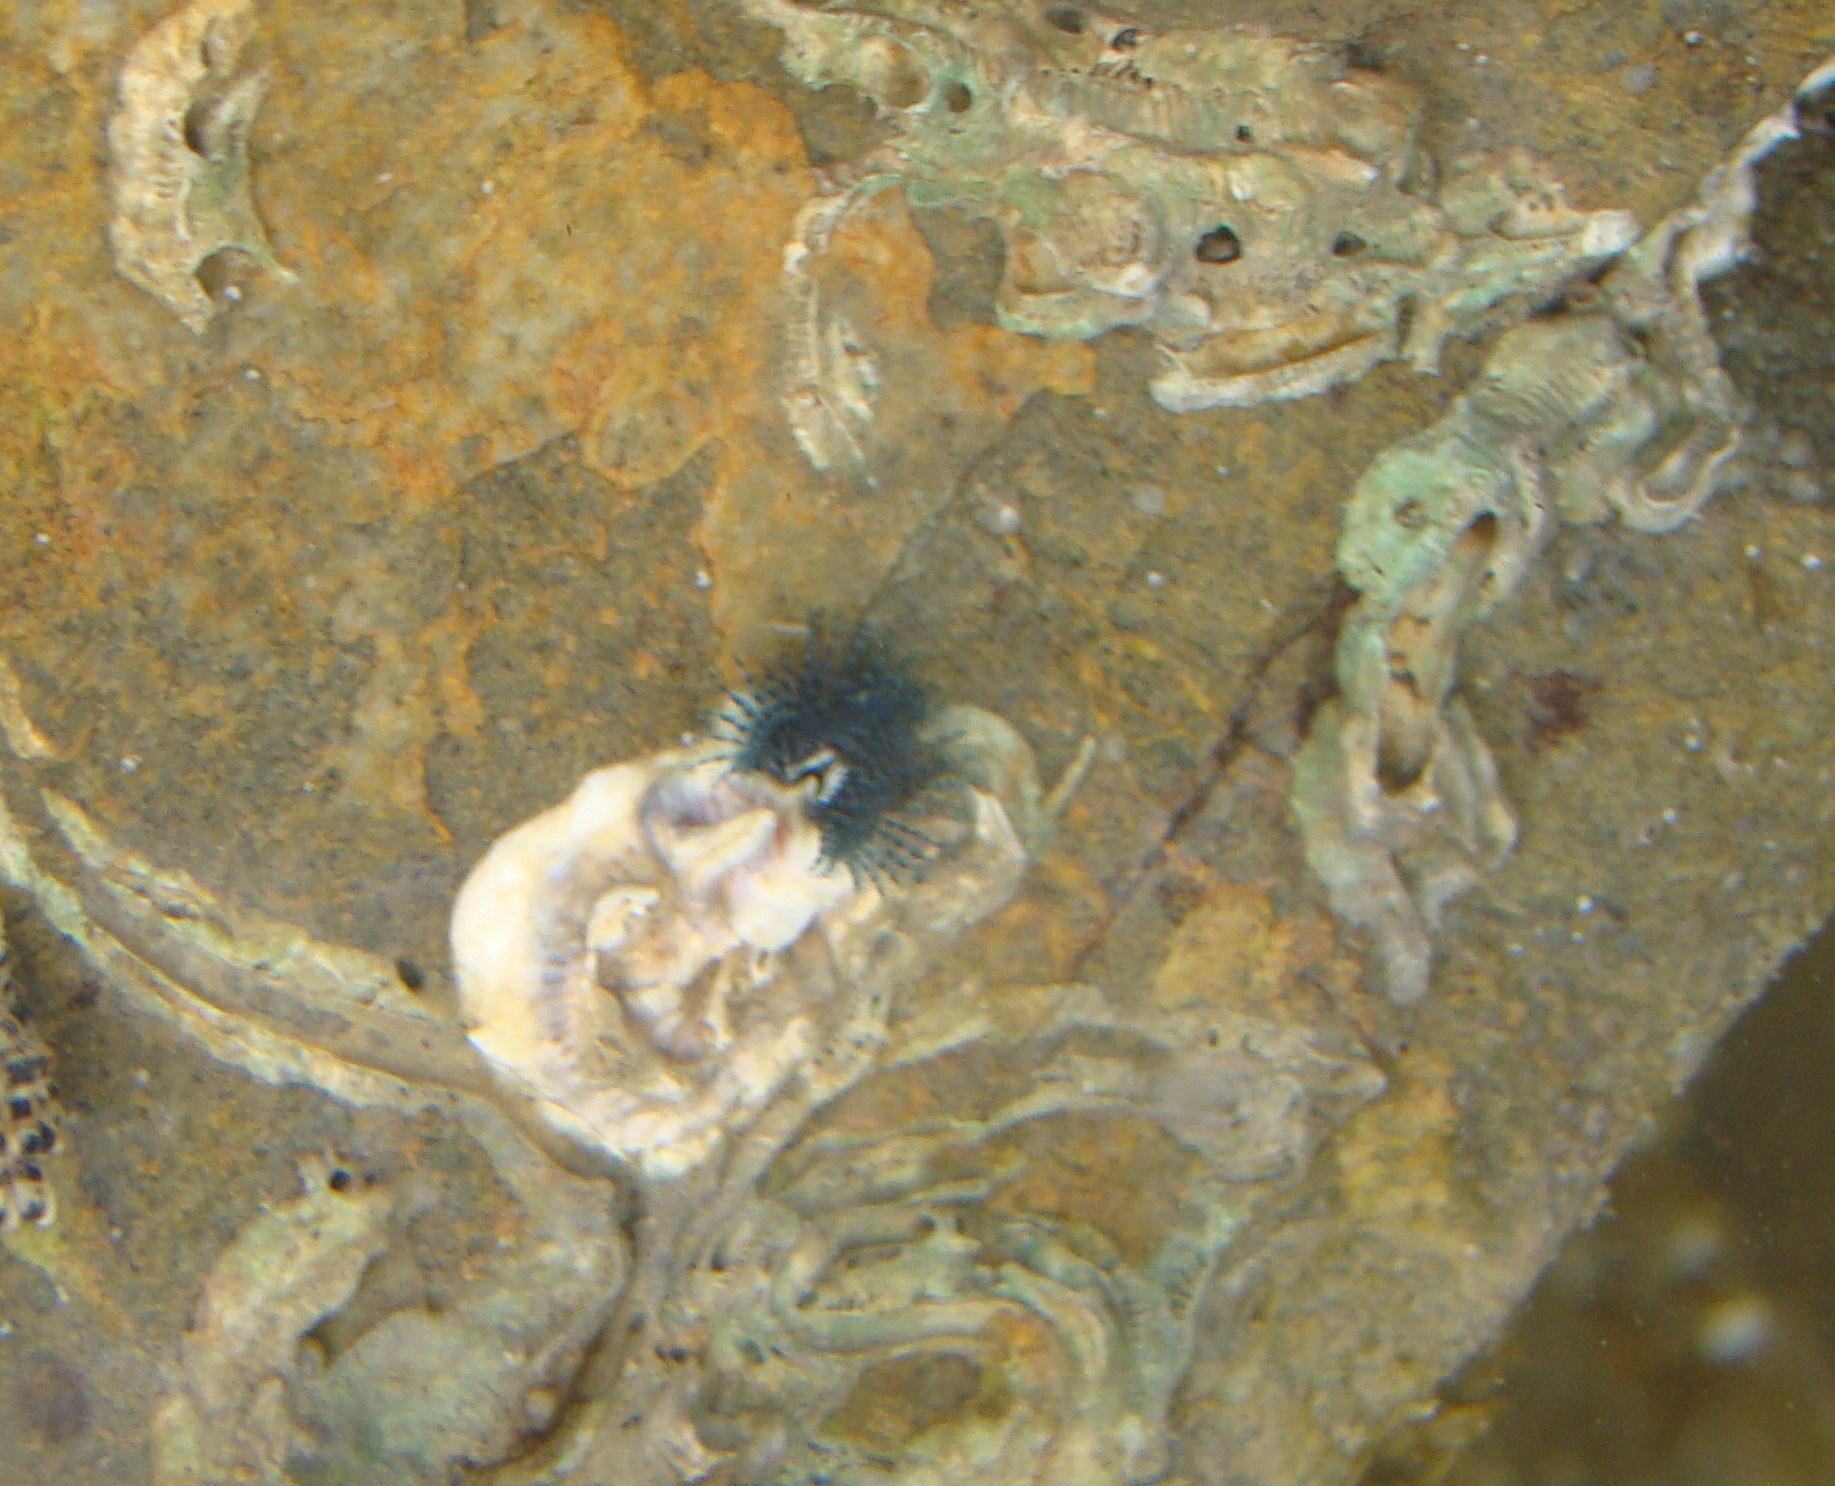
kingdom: Animalia
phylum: Annelida
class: Polychaeta
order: Sabellida
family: Serpulidae
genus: Spirobranchus
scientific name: Spirobranchus cariniferus
